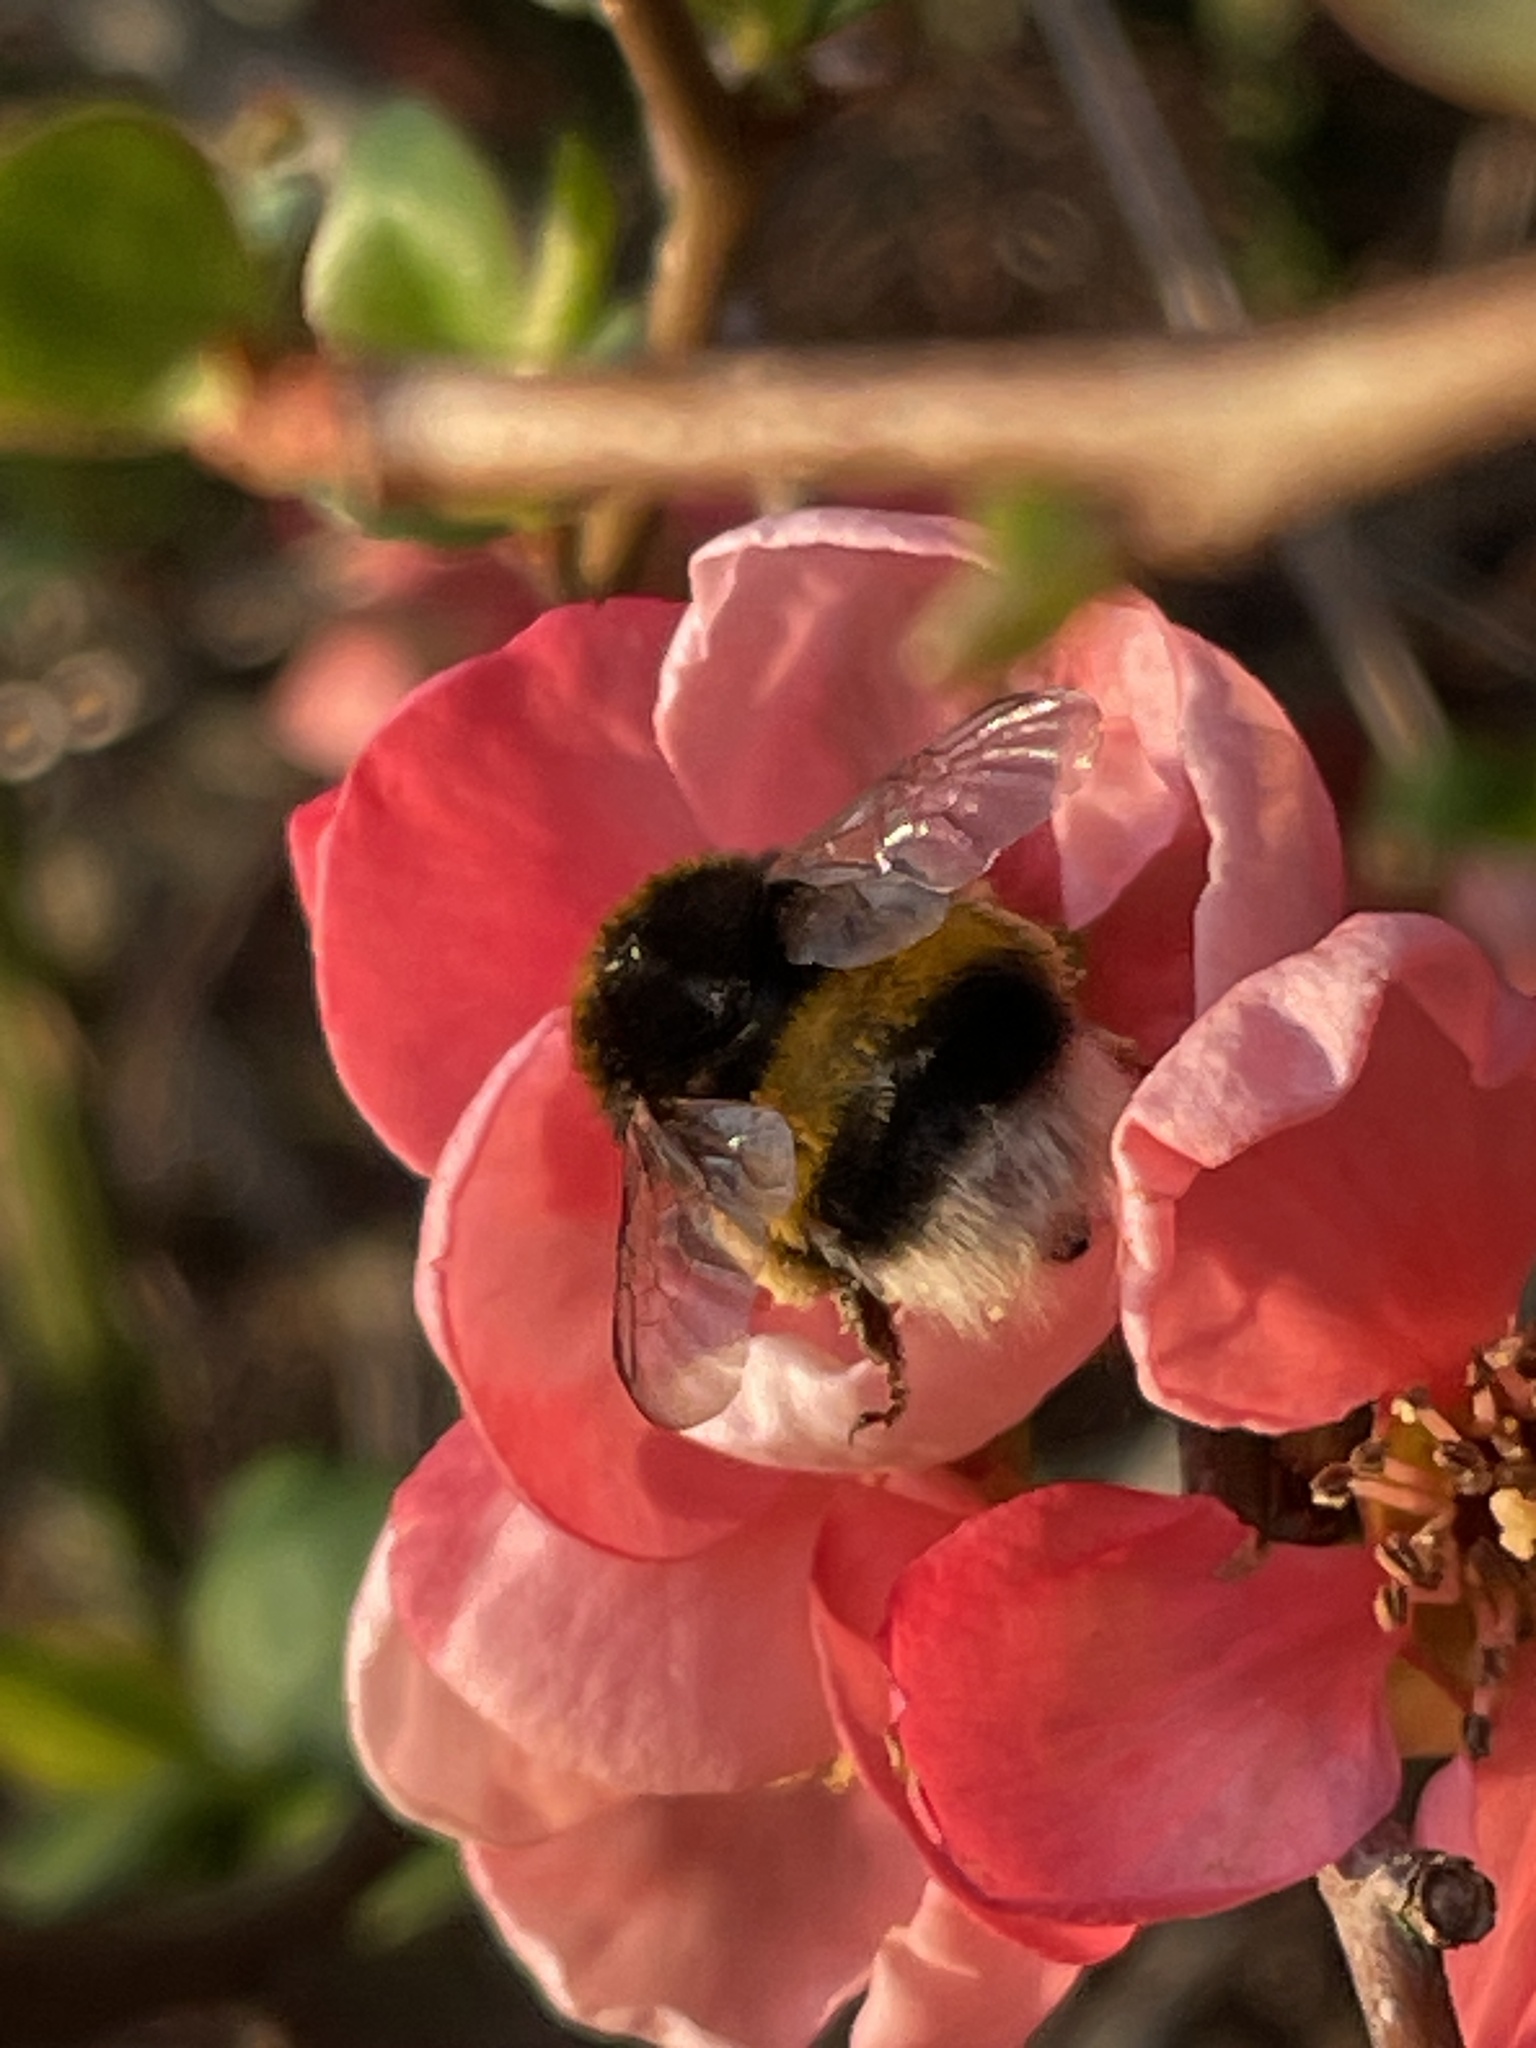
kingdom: Animalia
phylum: Arthropoda
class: Insecta
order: Hymenoptera
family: Apidae
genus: Bombus
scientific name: Bombus terrestris
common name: Buff-tailed bumblebee
